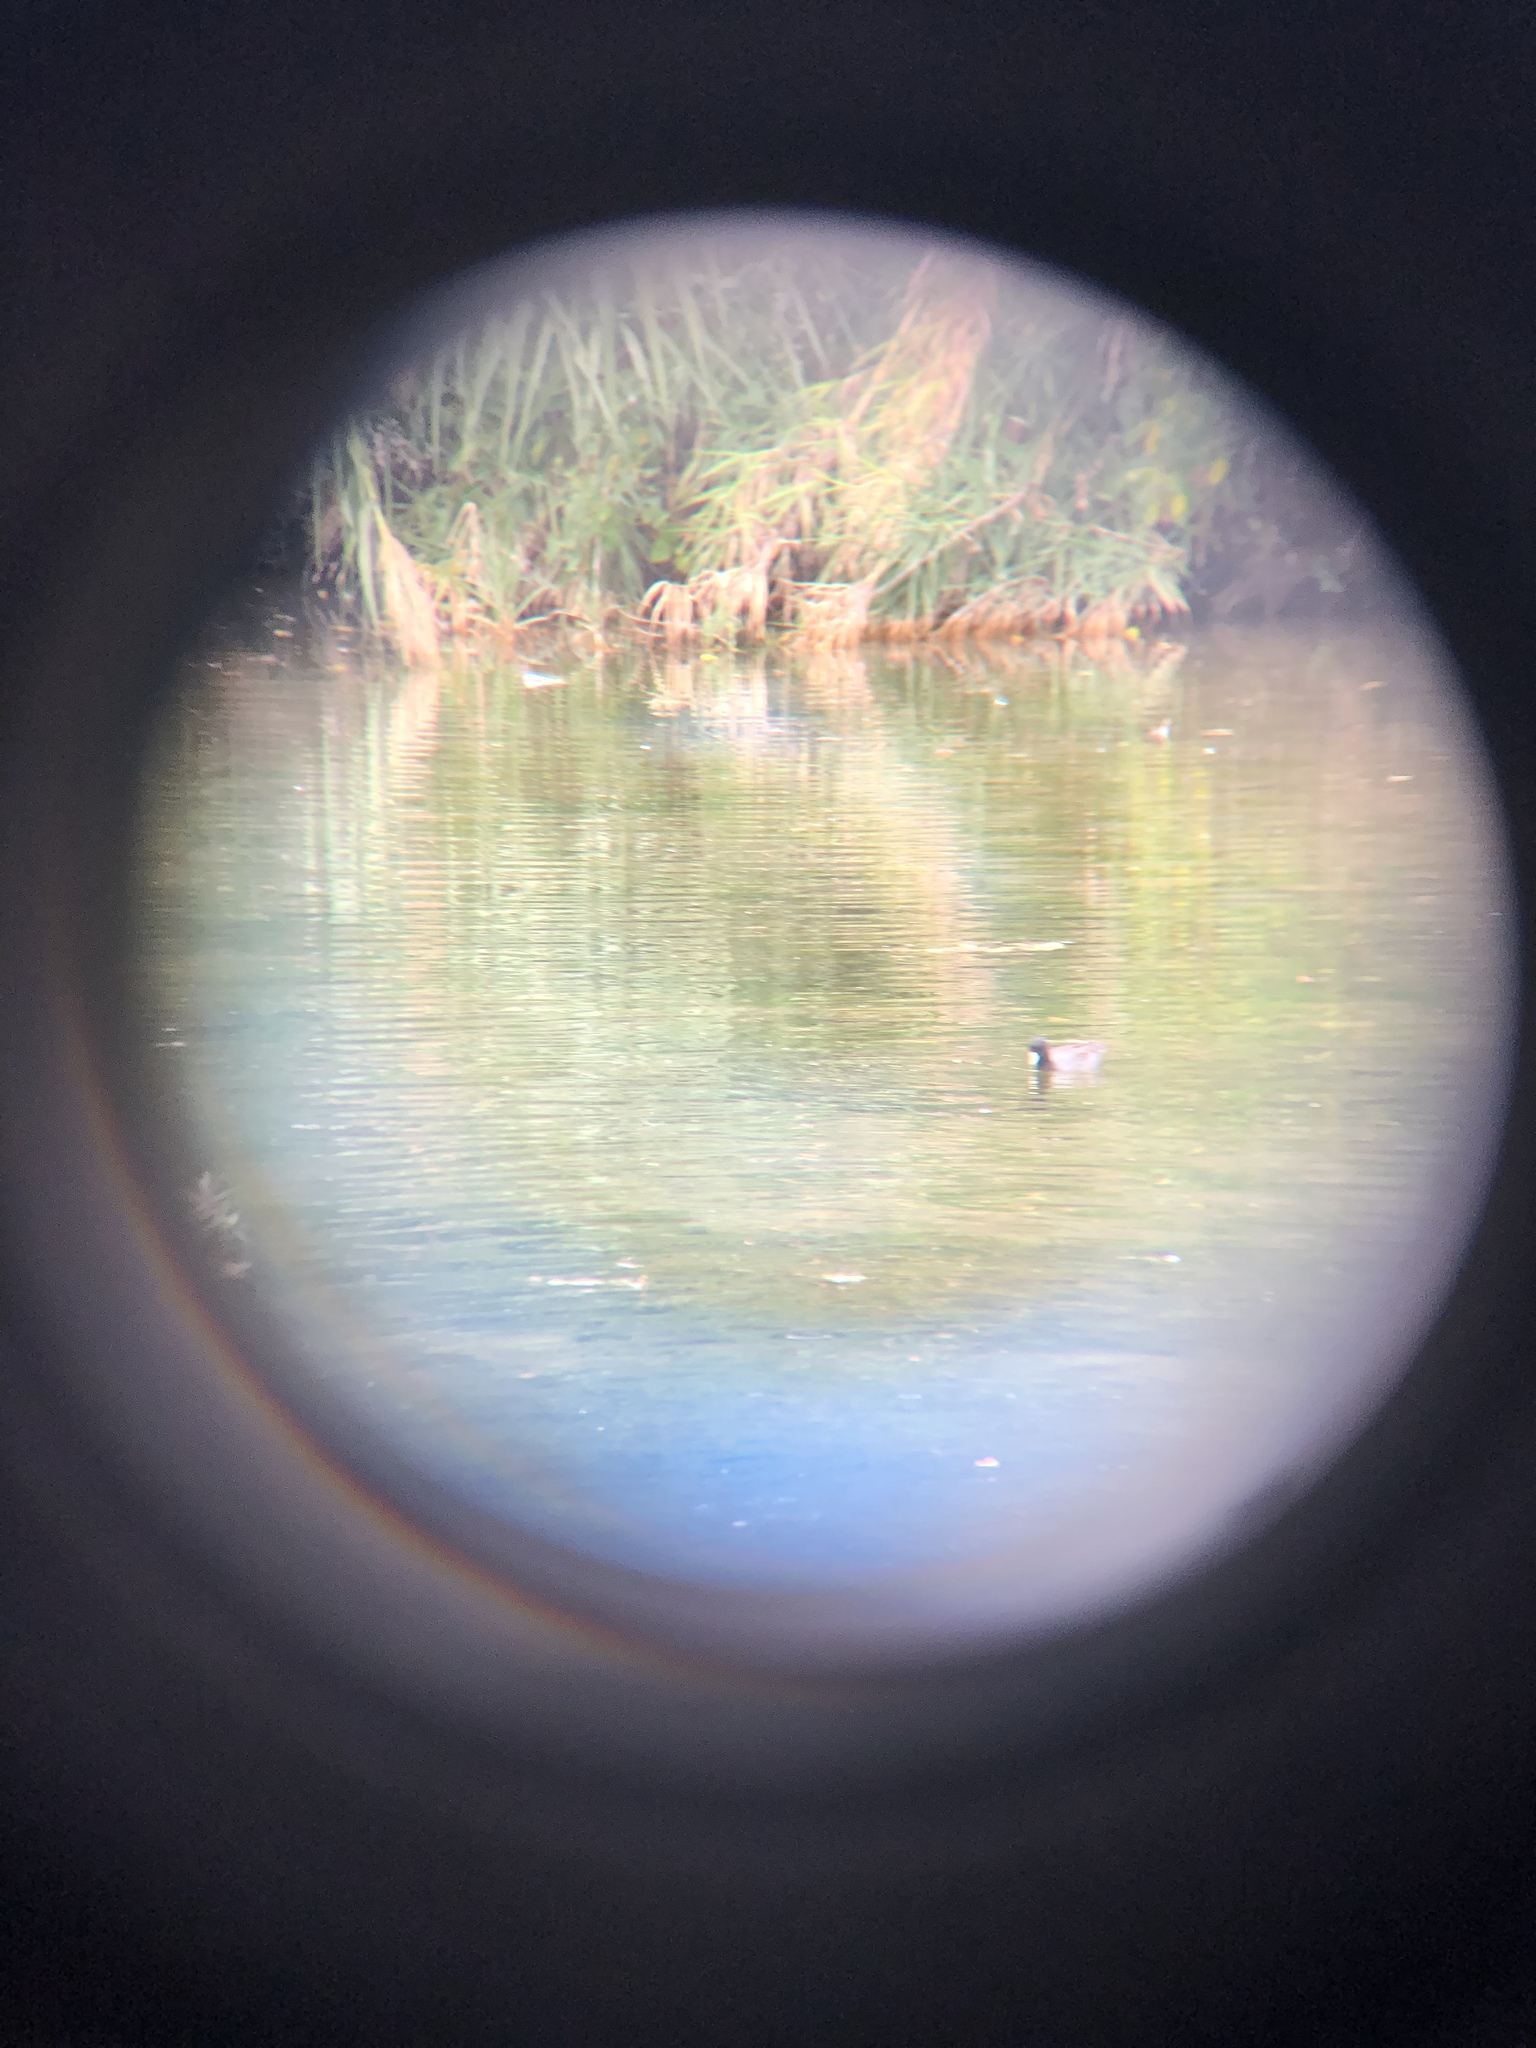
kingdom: Animalia
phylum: Chordata
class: Aves
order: Gruiformes
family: Rallidae
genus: Fulica
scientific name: Fulica americana
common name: American coot
